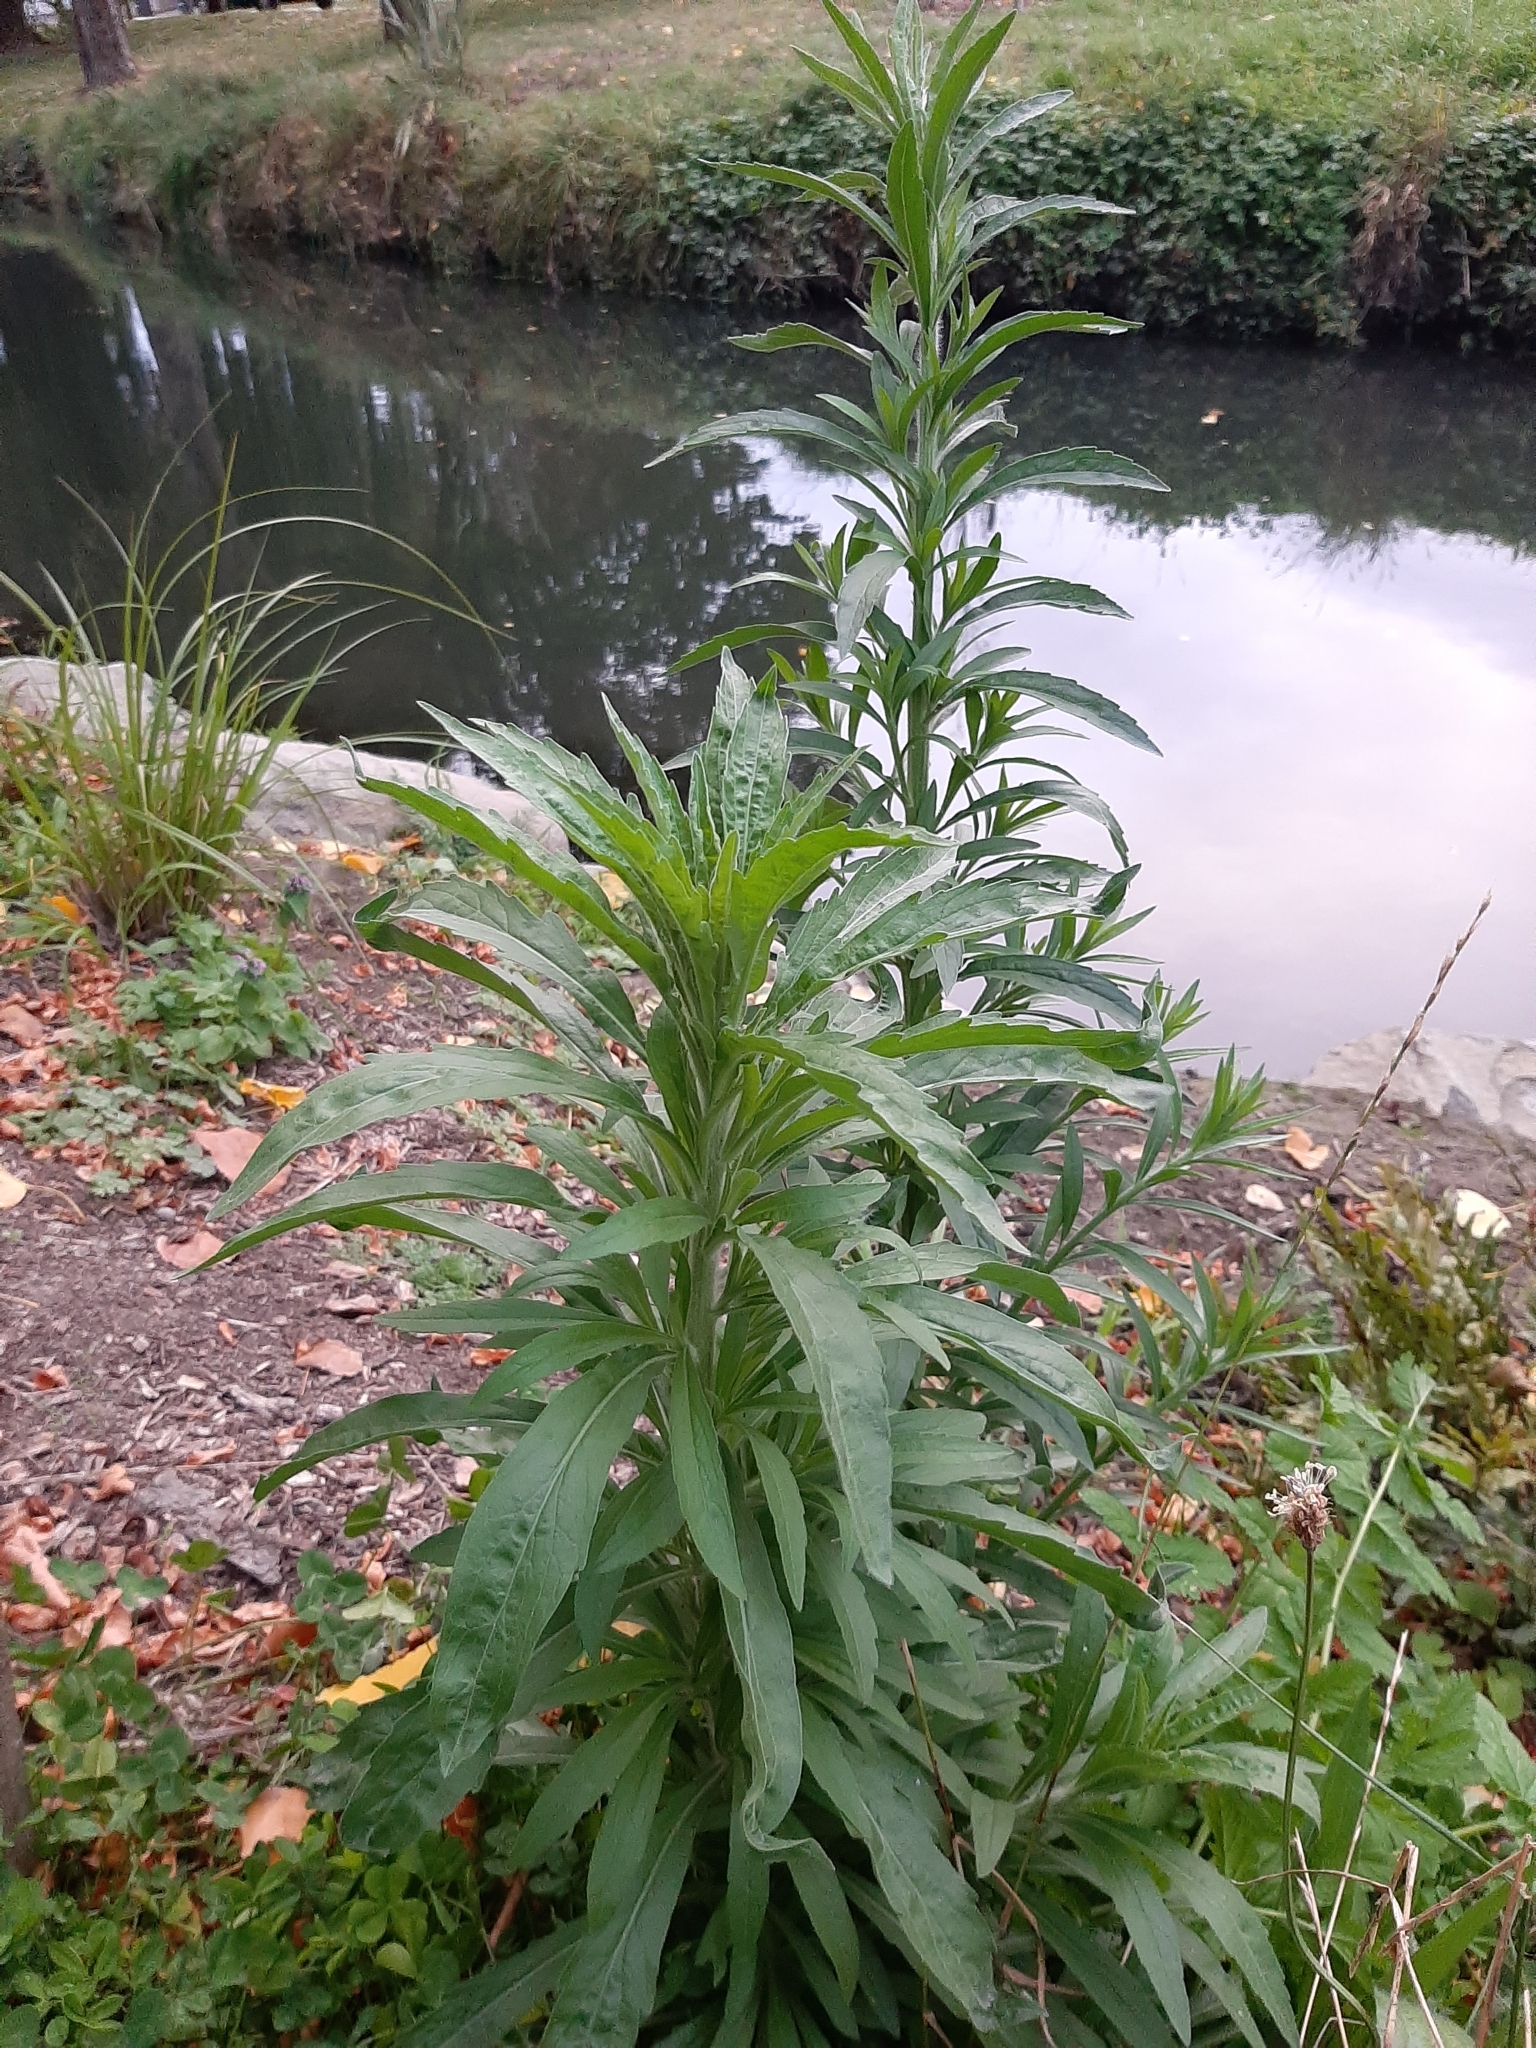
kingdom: Plantae
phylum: Tracheophyta
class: Magnoliopsida
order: Asterales
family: Asteraceae
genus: Erigeron
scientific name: Erigeron sumatrensis
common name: Daisy
